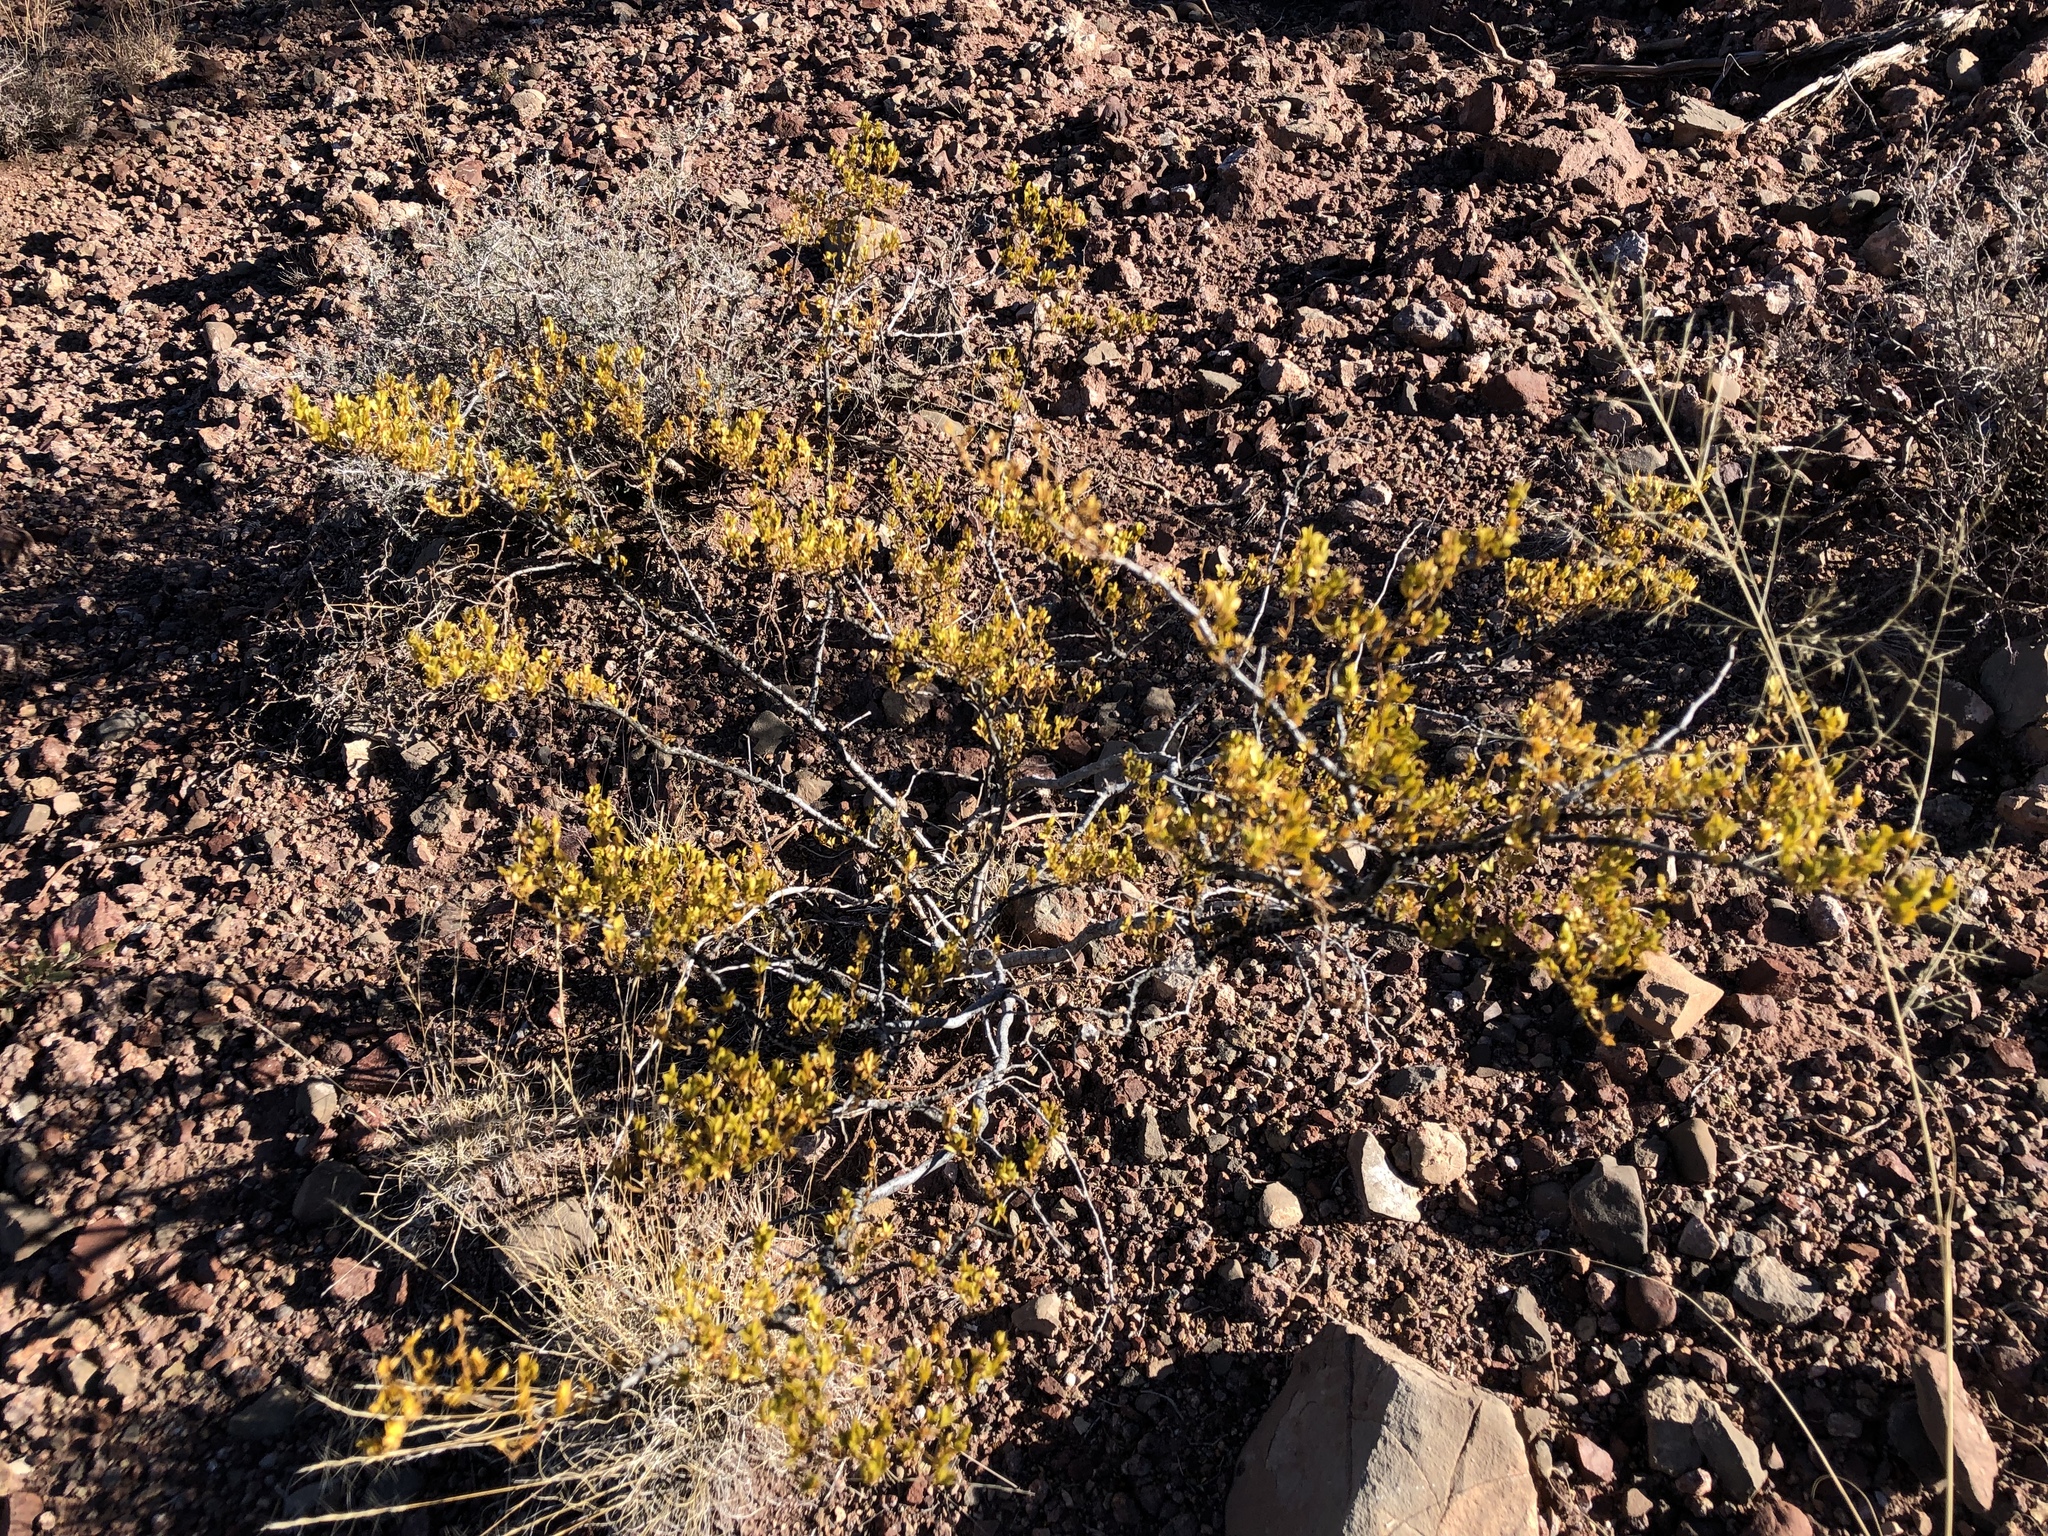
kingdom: Plantae
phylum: Tracheophyta
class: Magnoliopsida
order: Zygophyllales
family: Zygophyllaceae
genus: Larrea
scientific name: Larrea tridentata
